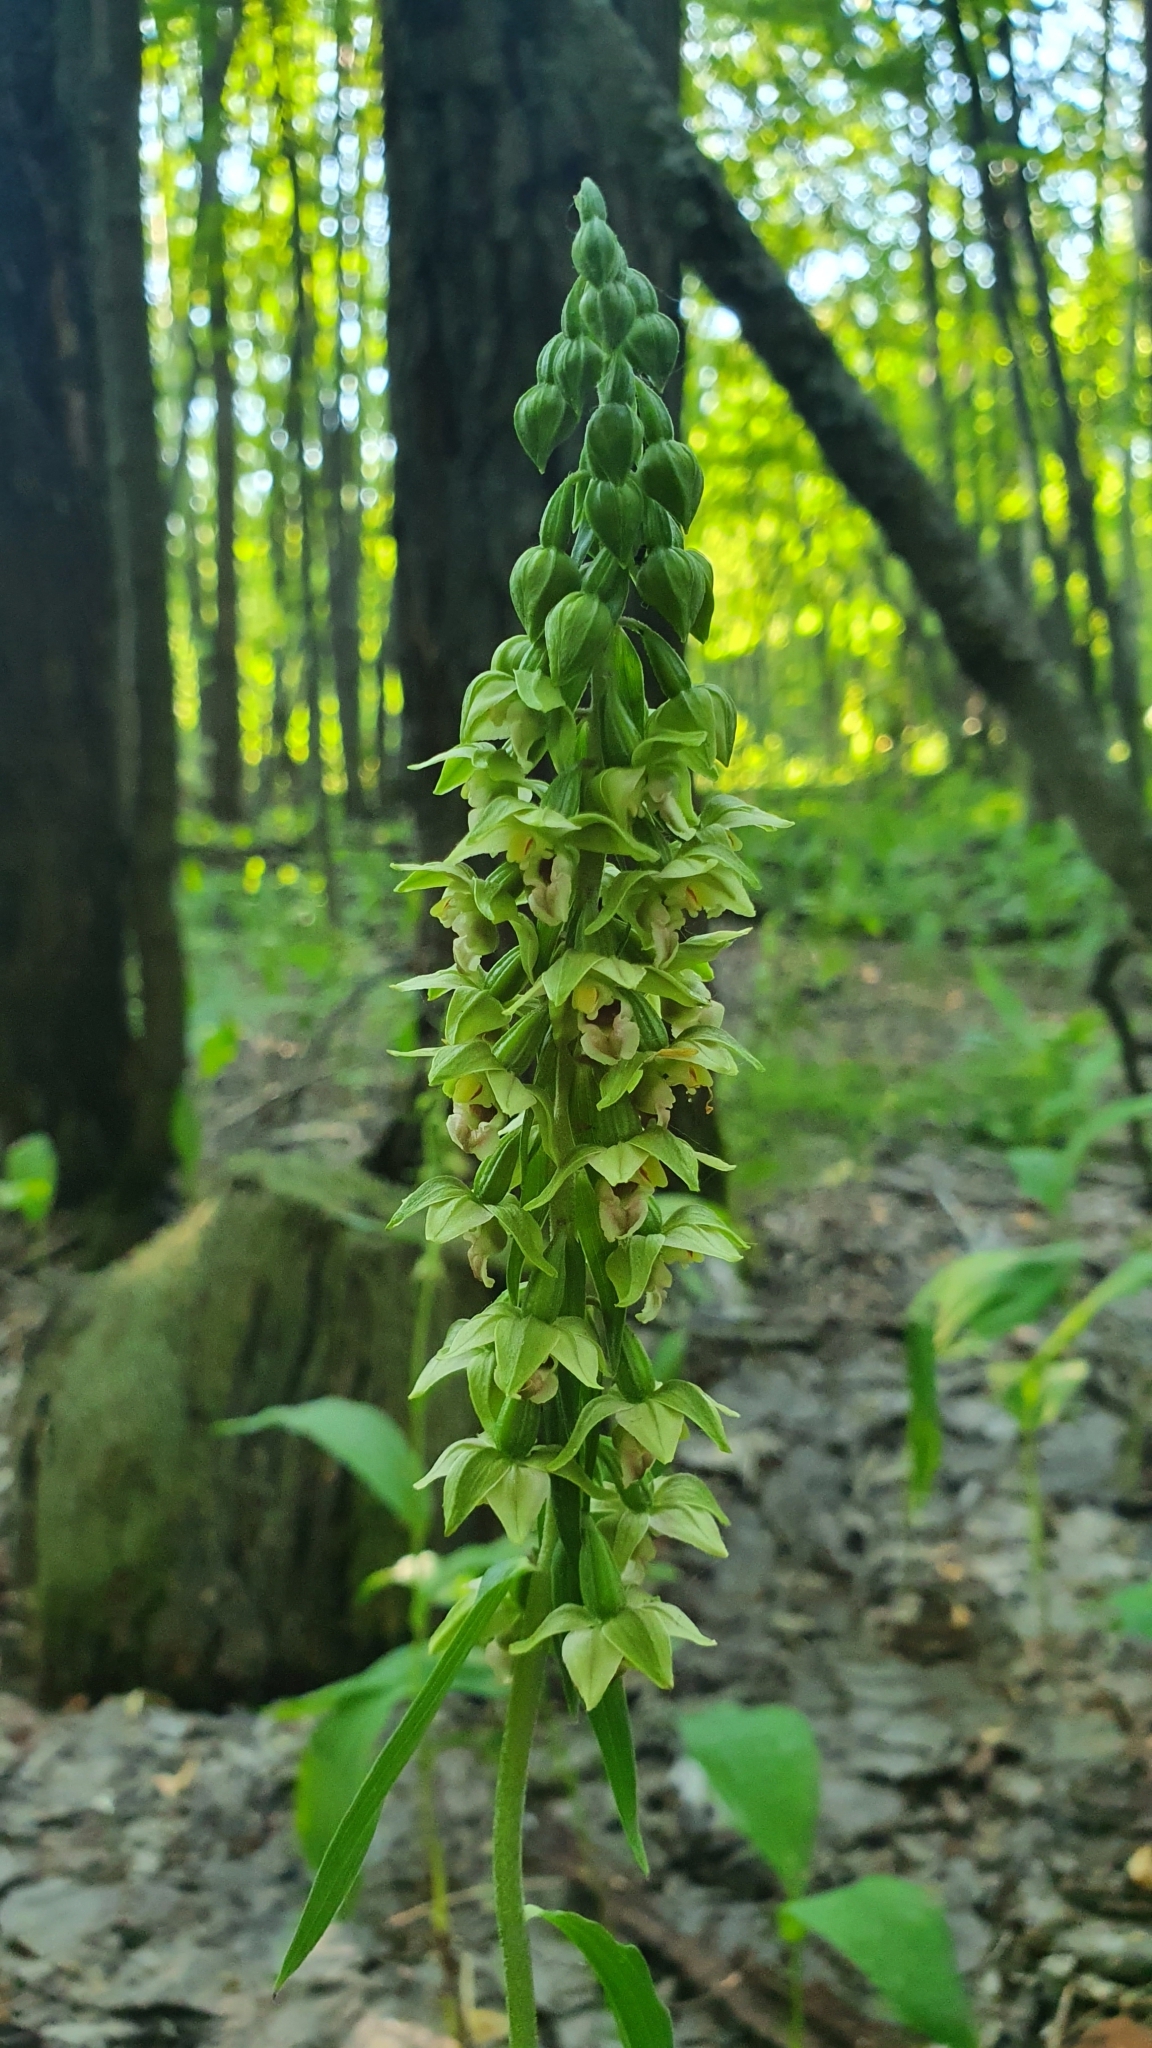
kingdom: Plantae
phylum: Tracheophyta
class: Liliopsida
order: Asparagales
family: Orchidaceae
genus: Epipactis
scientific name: Epipactis helleborine
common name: Broad-leaved helleborine
